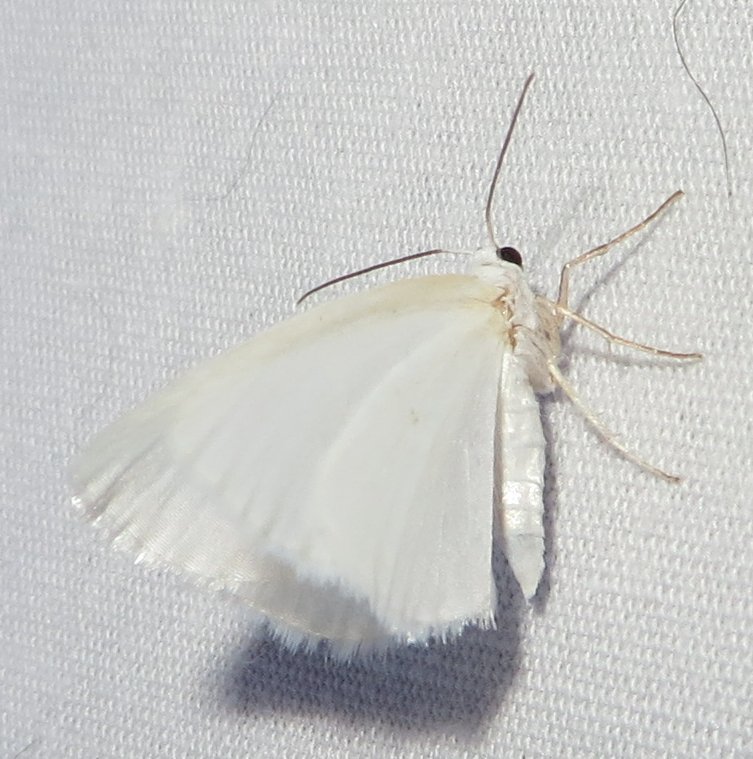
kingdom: Animalia
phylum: Arthropoda
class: Insecta
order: Lepidoptera
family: Geometridae
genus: Lomographa
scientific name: Lomographa vestaliata
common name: White spring moth
